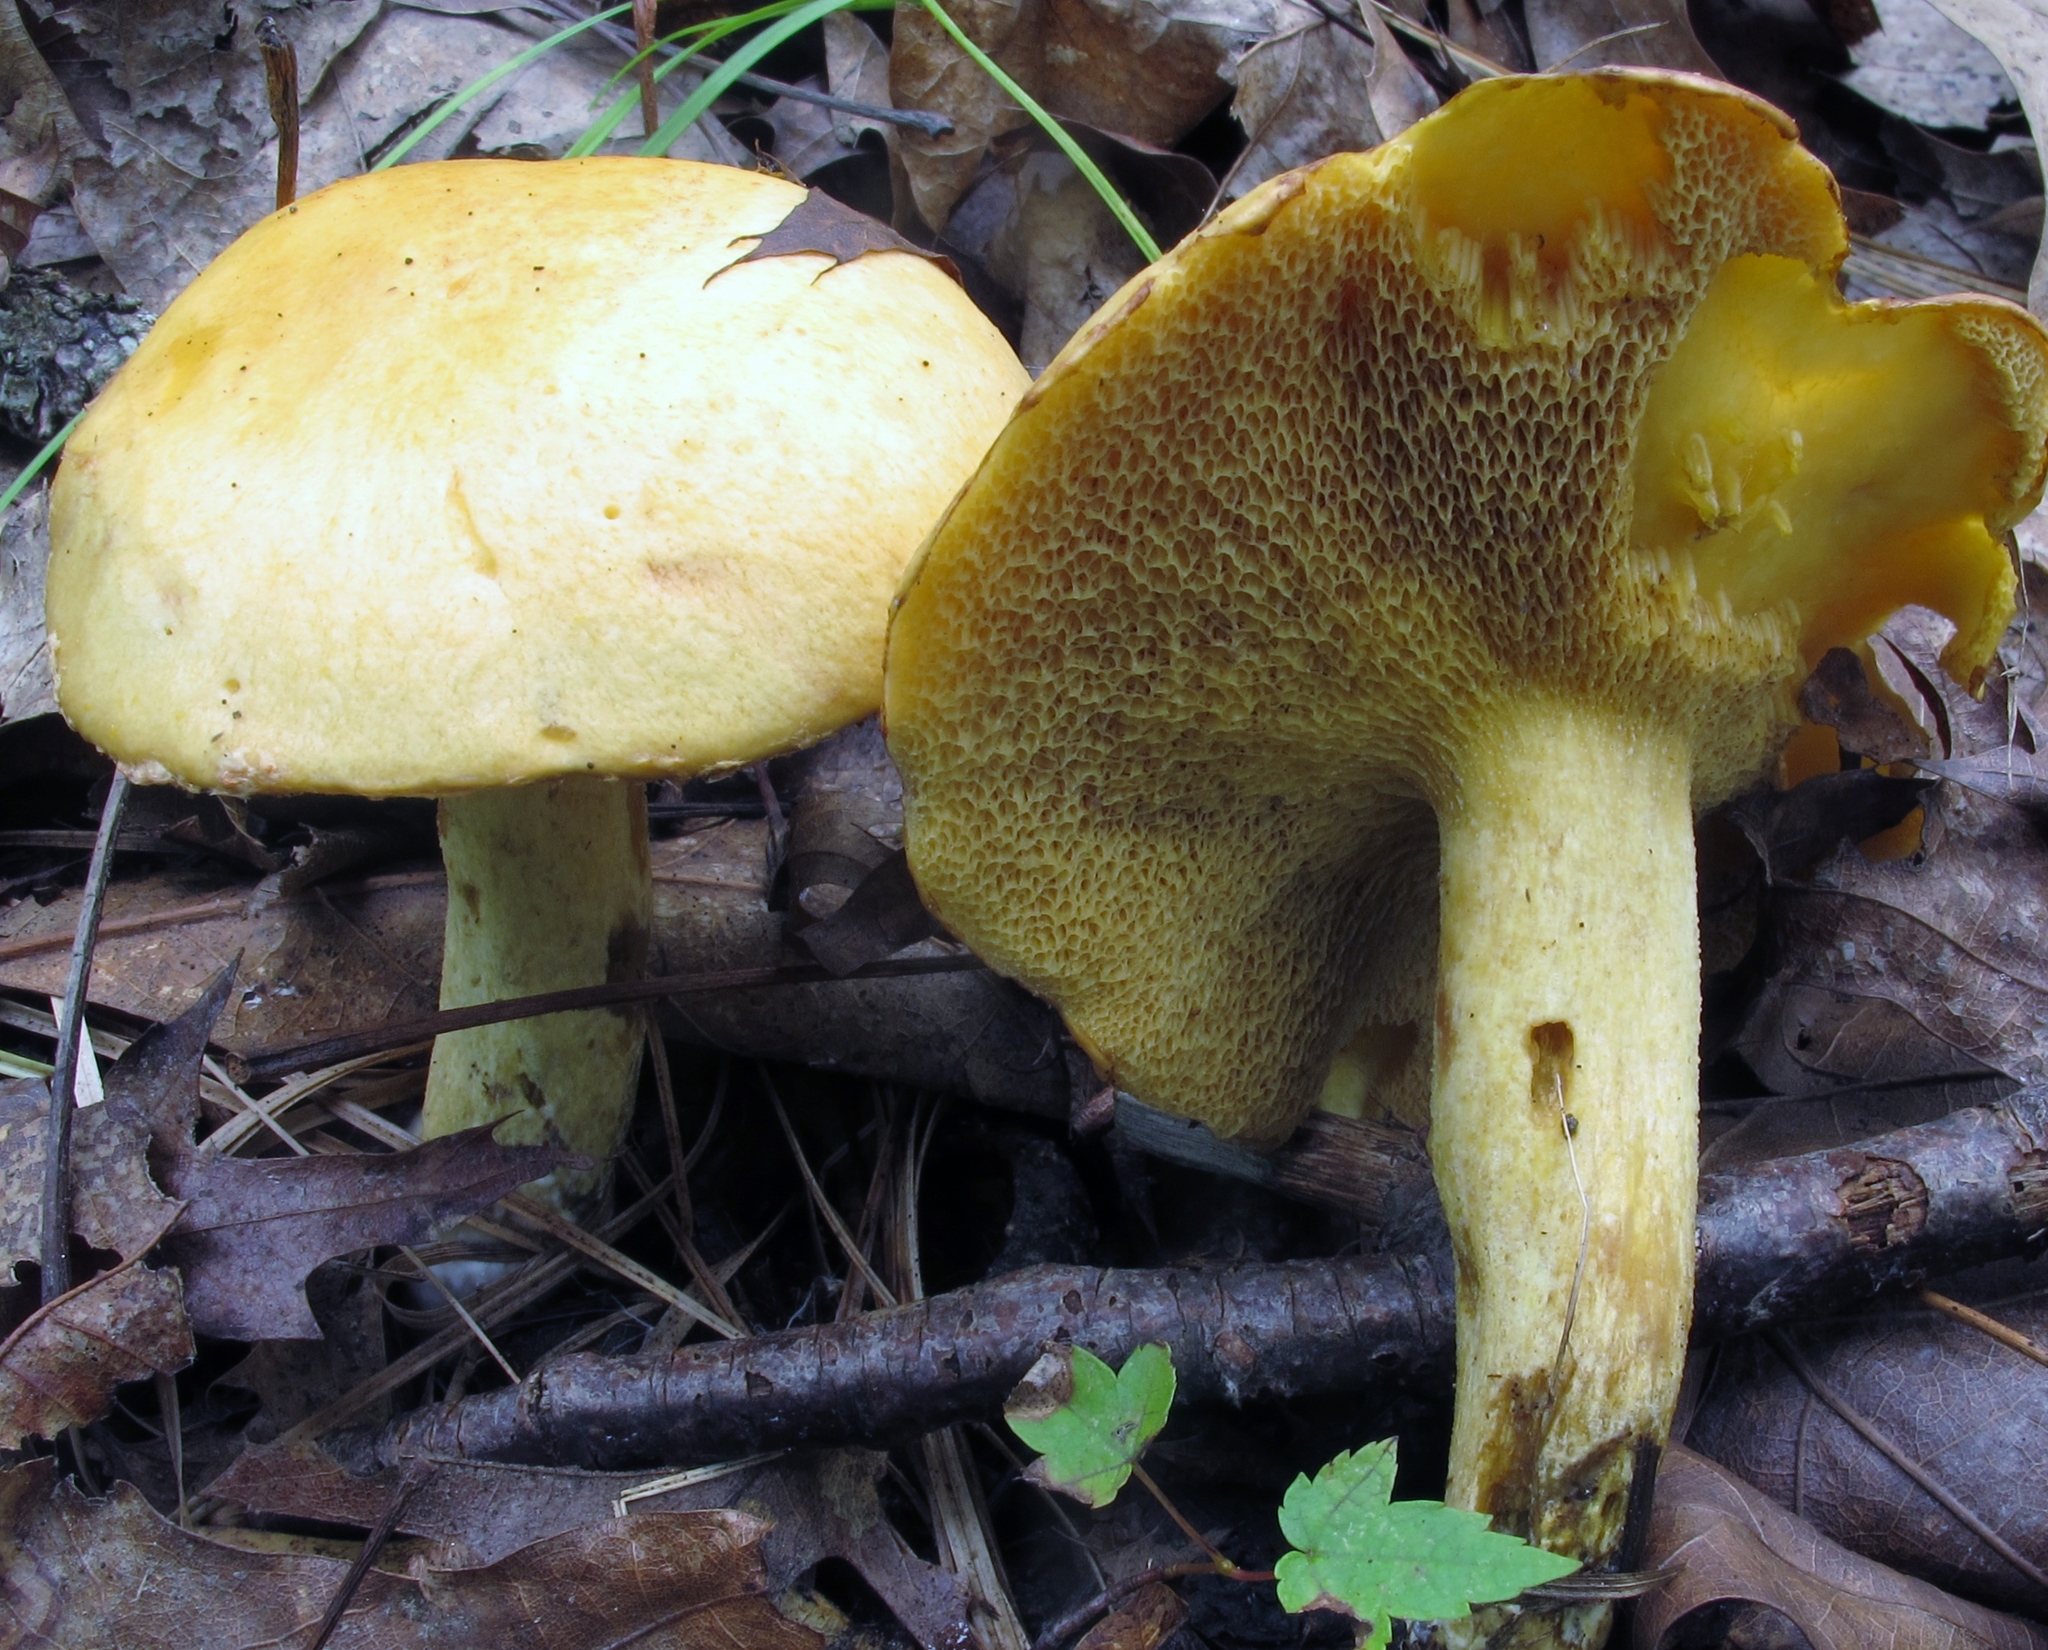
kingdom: Fungi
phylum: Basidiomycota
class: Agaricomycetes
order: Boletales
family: Suillaceae
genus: Suillus
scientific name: Suillus subaureus
